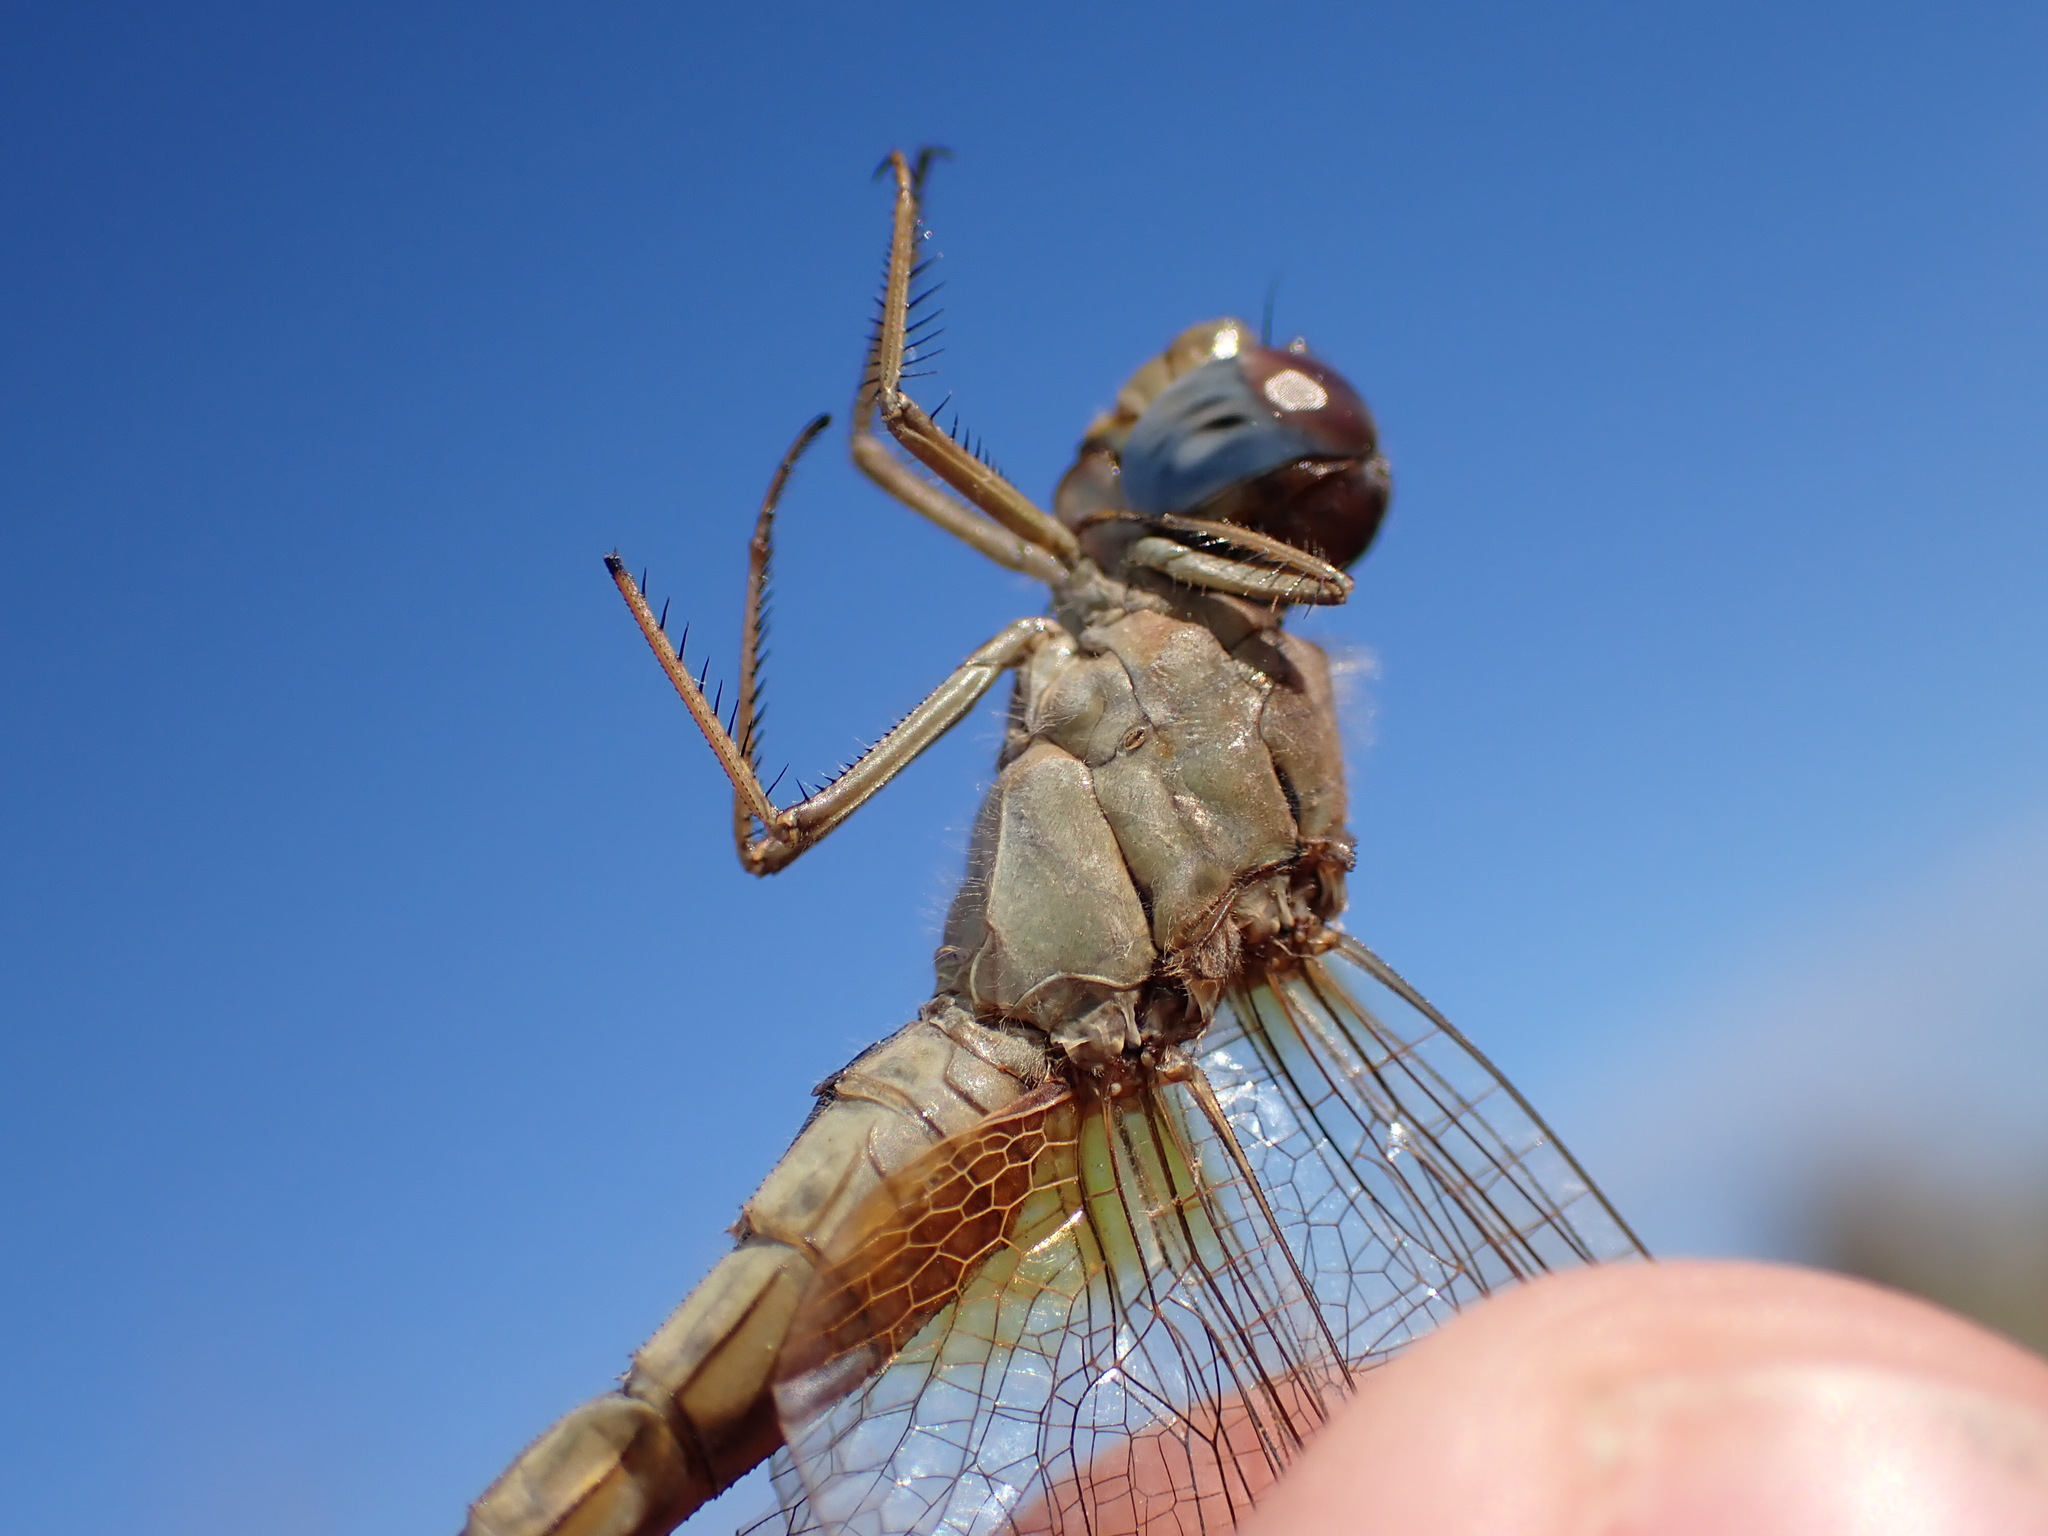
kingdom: Animalia
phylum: Arthropoda
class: Insecta
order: Odonata
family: Libellulidae
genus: Crocothemis
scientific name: Crocothemis erythraea
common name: Scarlet dragonfly
